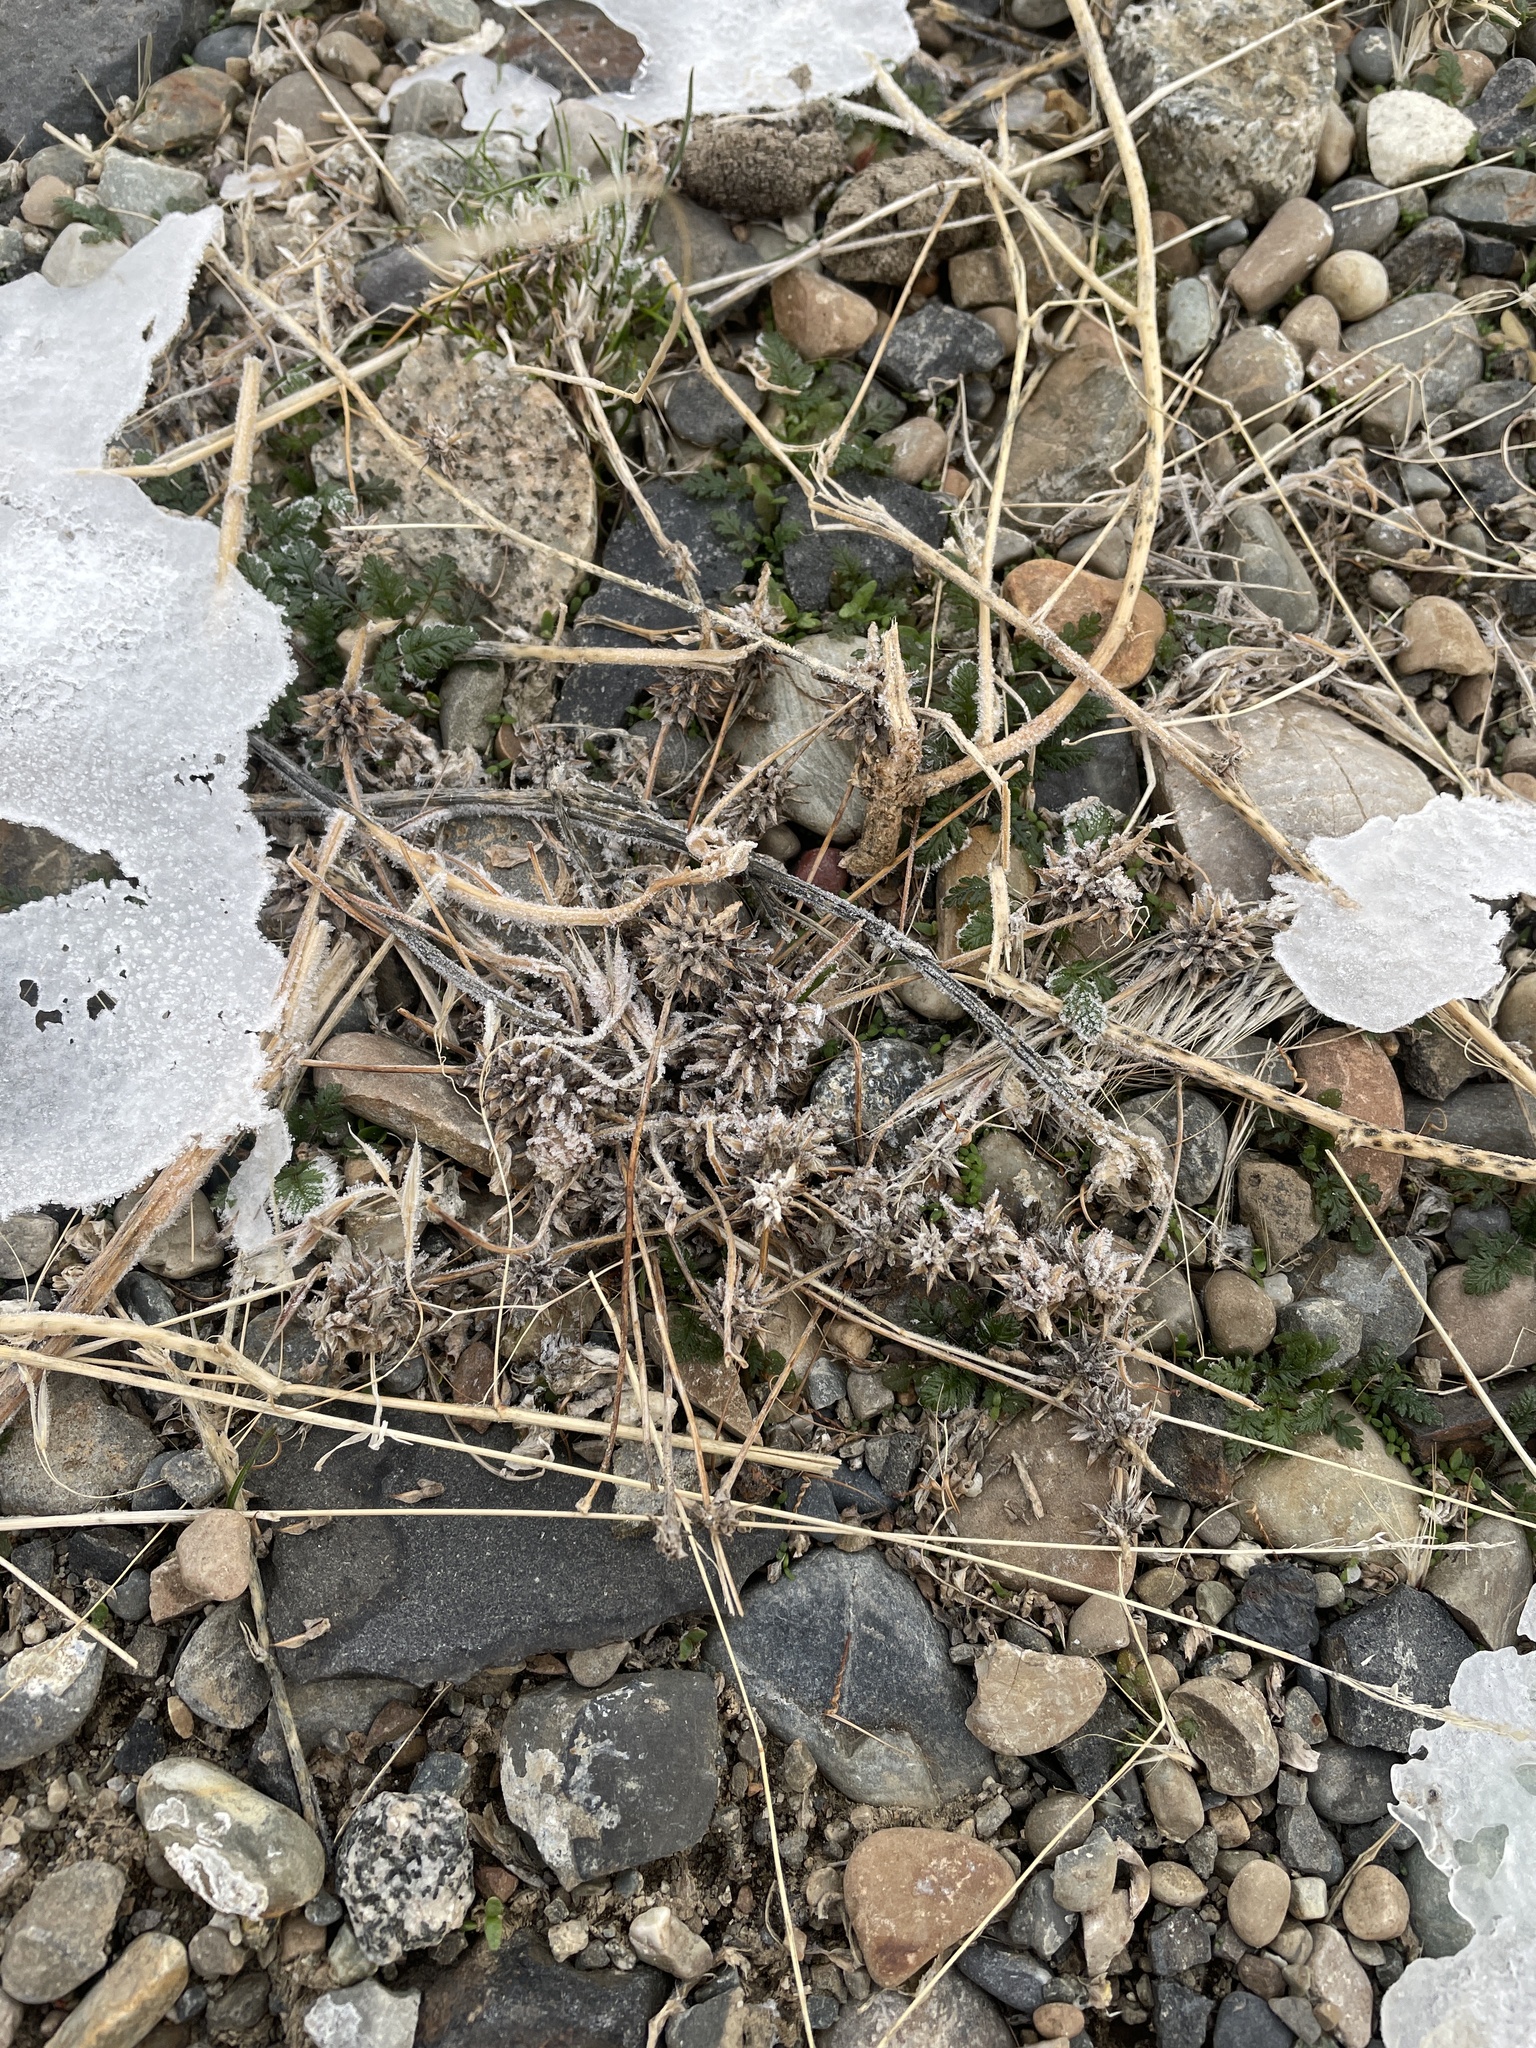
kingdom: Plantae
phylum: Tracheophyta
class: Magnoliopsida
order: Ranunculales
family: Ranunculaceae
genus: Ceratocephala
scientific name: Ceratocephala orthoceras
